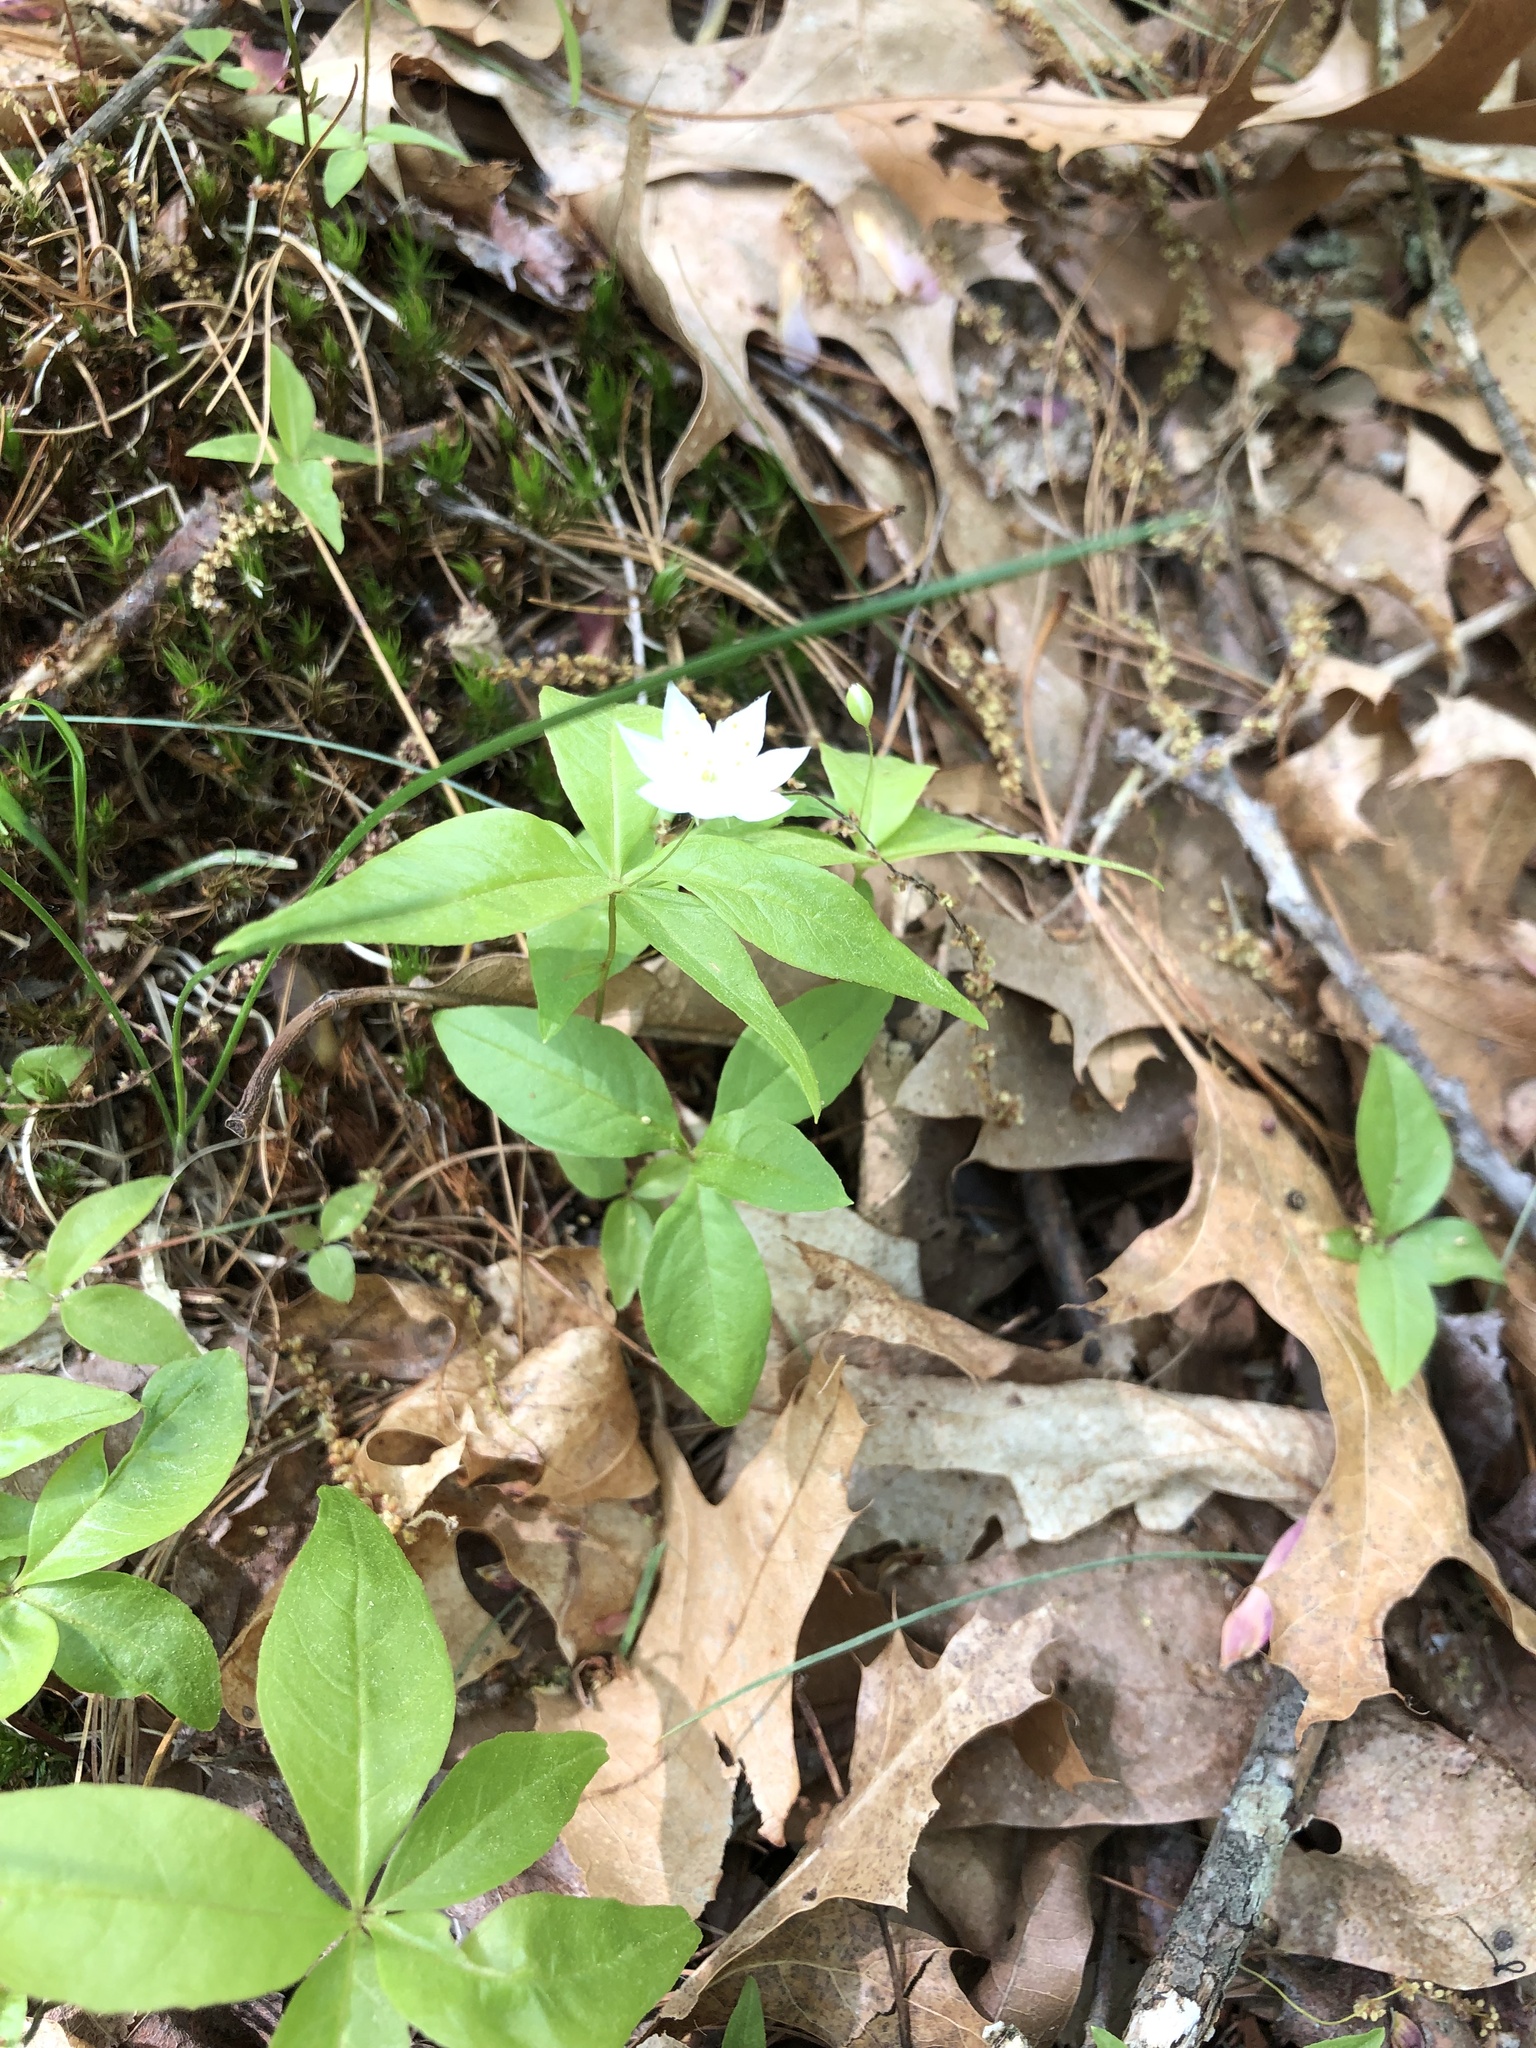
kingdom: Plantae
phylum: Tracheophyta
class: Magnoliopsida
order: Ericales
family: Primulaceae
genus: Lysimachia
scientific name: Lysimachia borealis
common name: American starflower
